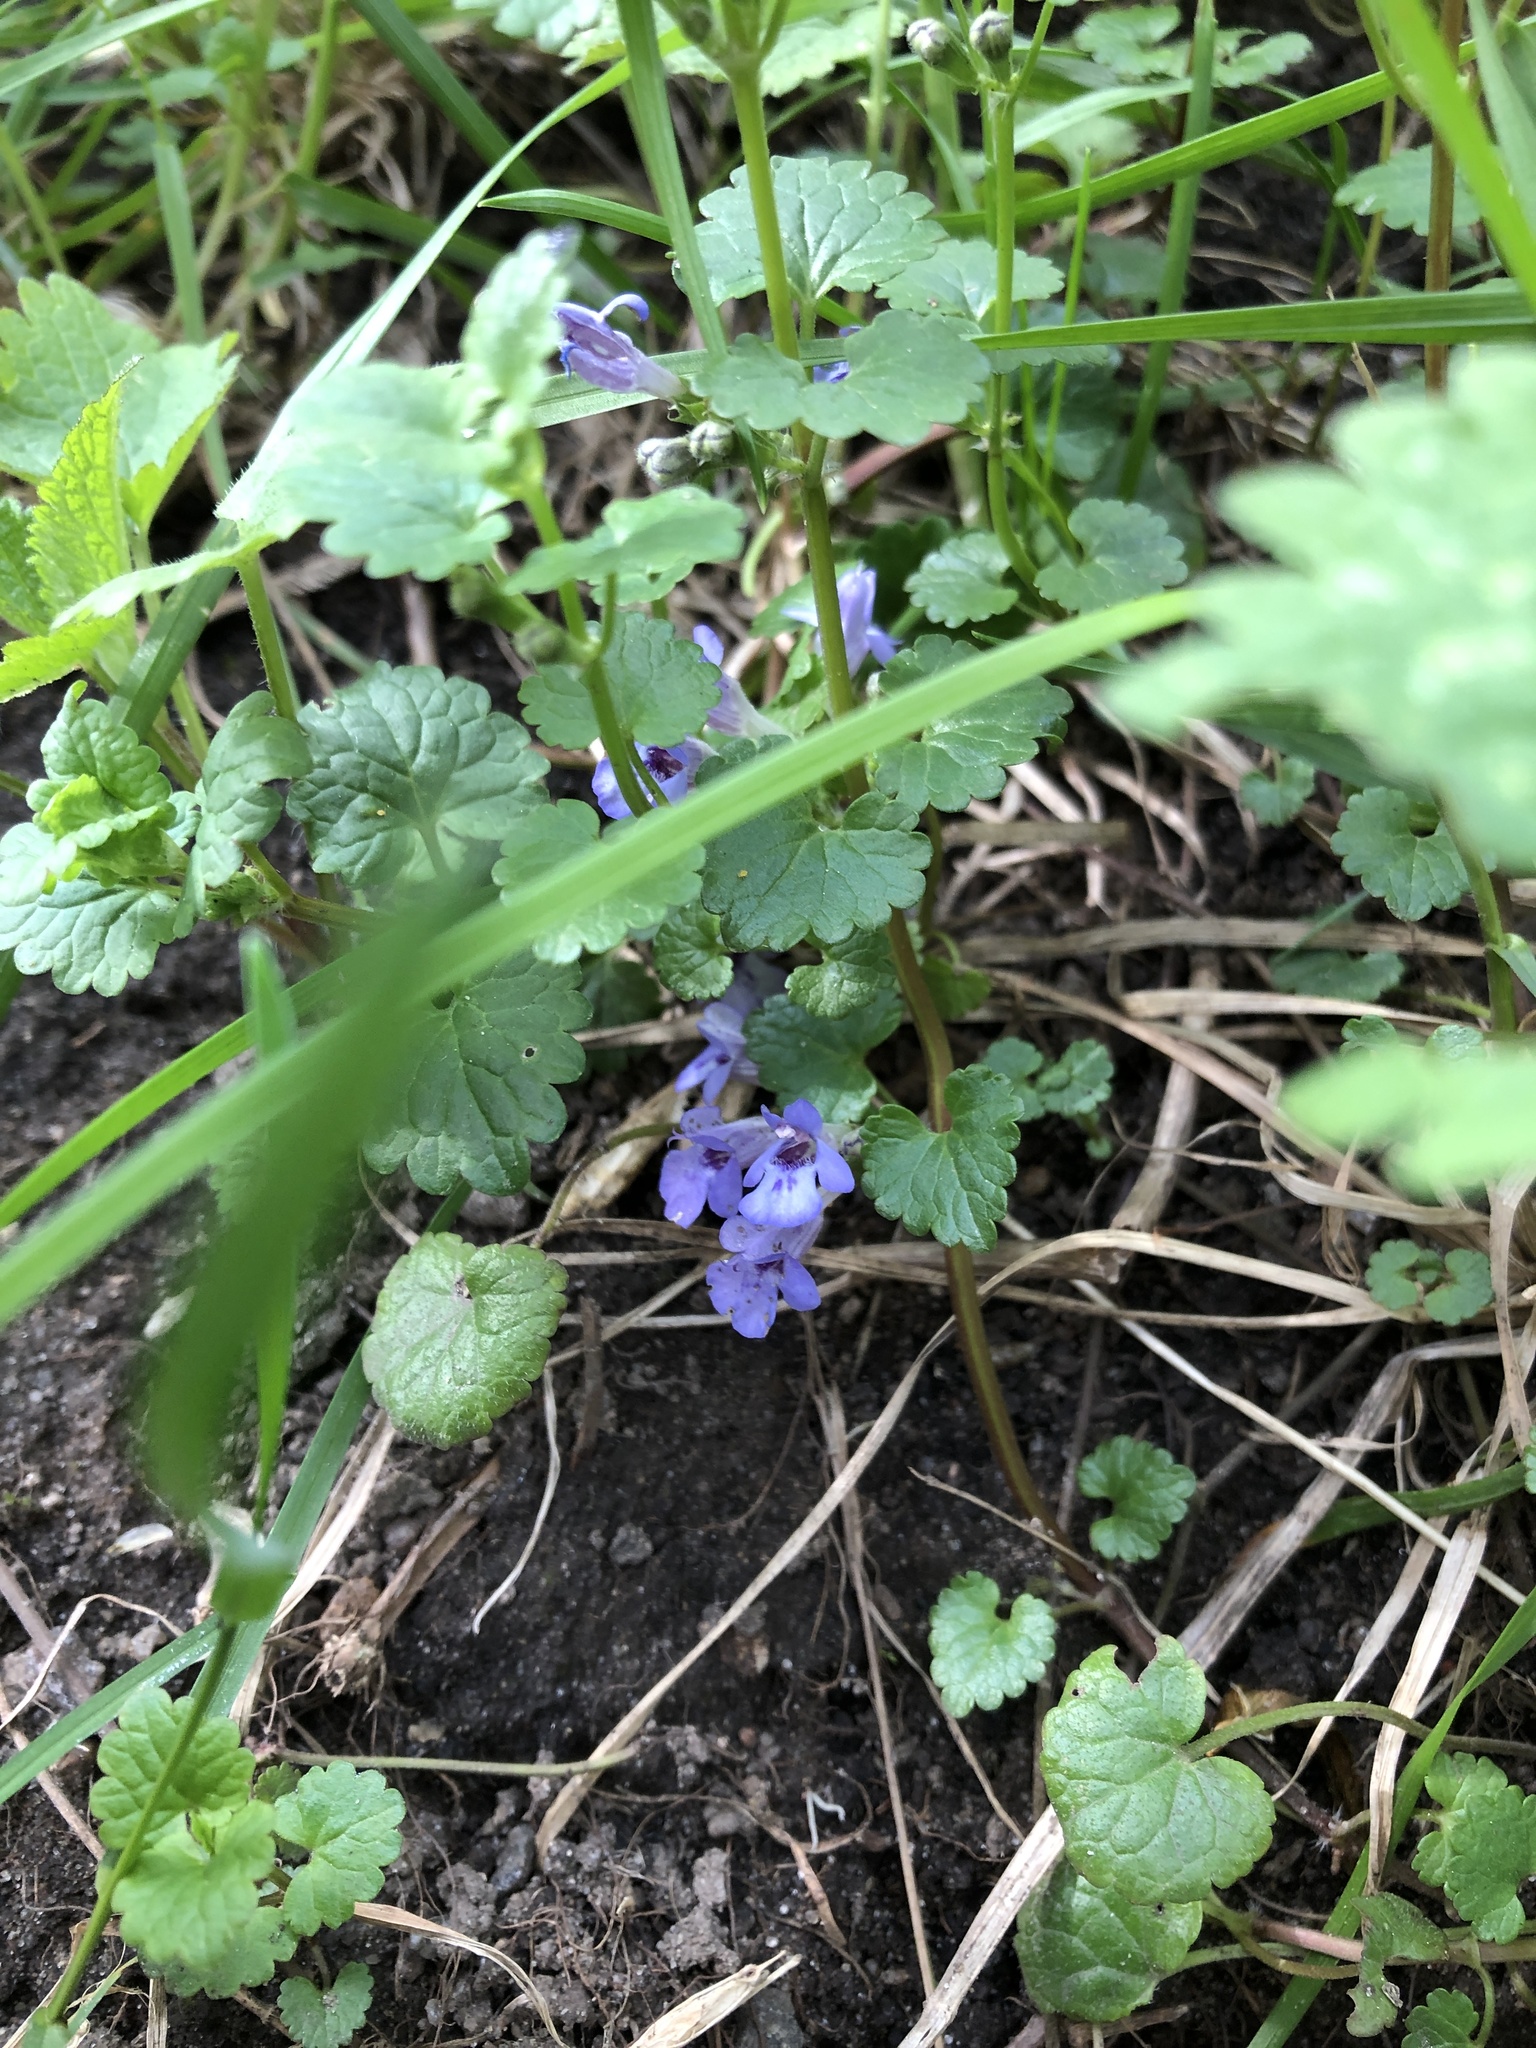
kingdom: Plantae
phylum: Tracheophyta
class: Magnoliopsida
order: Lamiales
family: Lamiaceae
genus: Glechoma
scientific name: Glechoma hederacea
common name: Ground ivy
